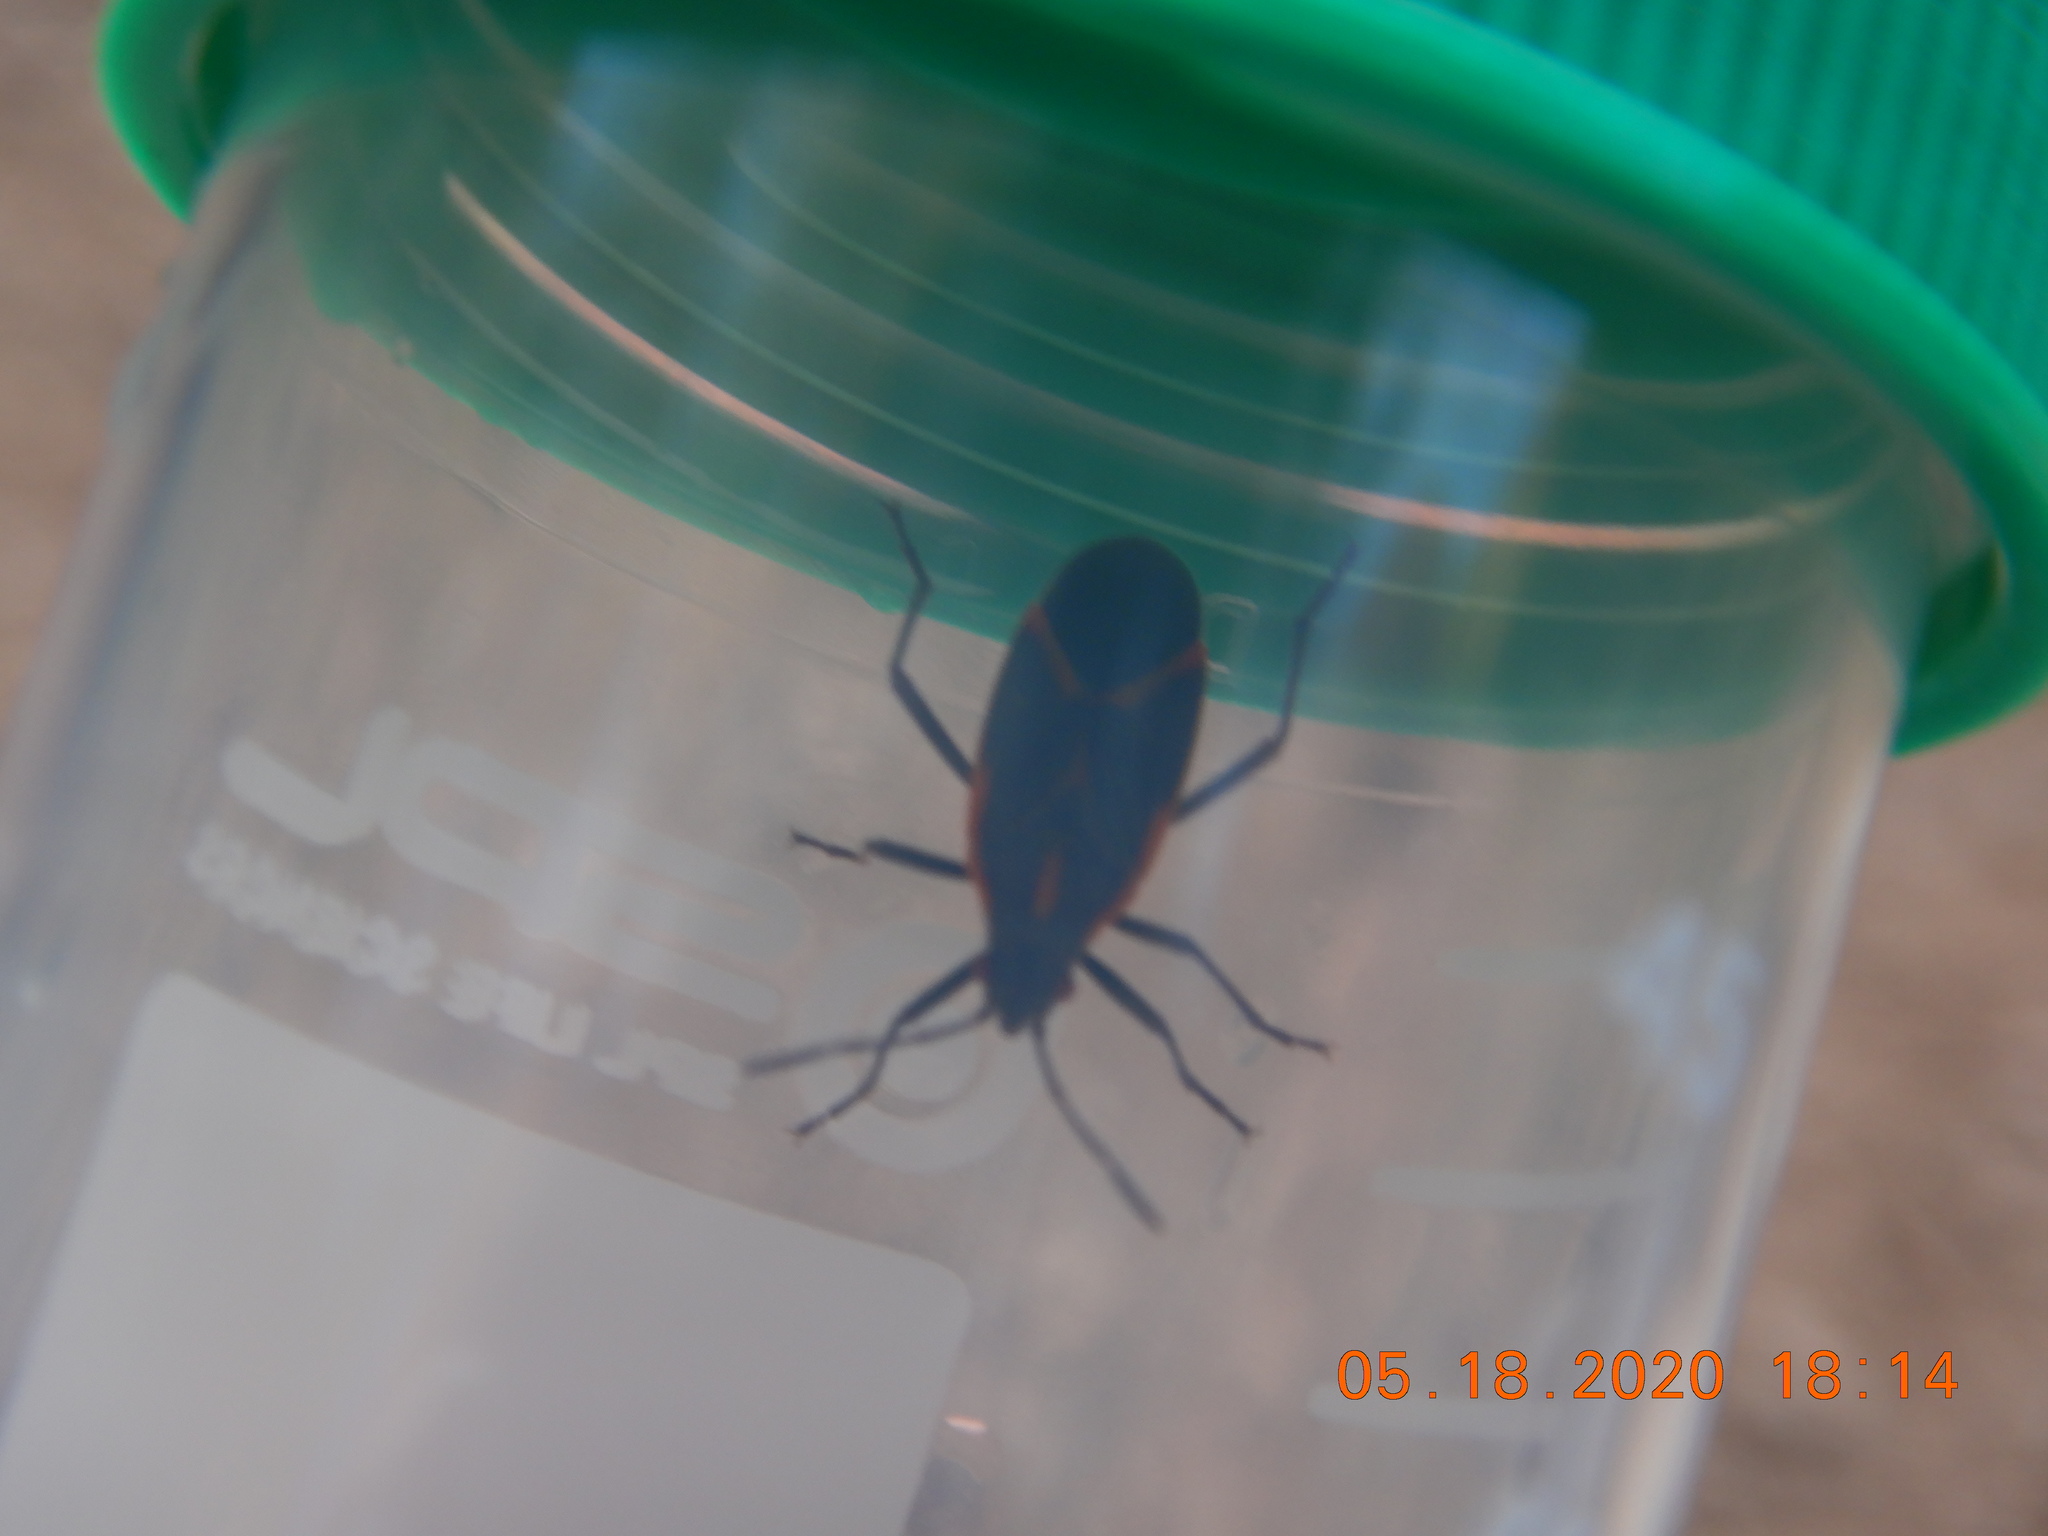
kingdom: Animalia
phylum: Arthropoda
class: Insecta
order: Hemiptera
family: Rhopalidae
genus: Boisea
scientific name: Boisea trivittata
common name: Boxelder bug
